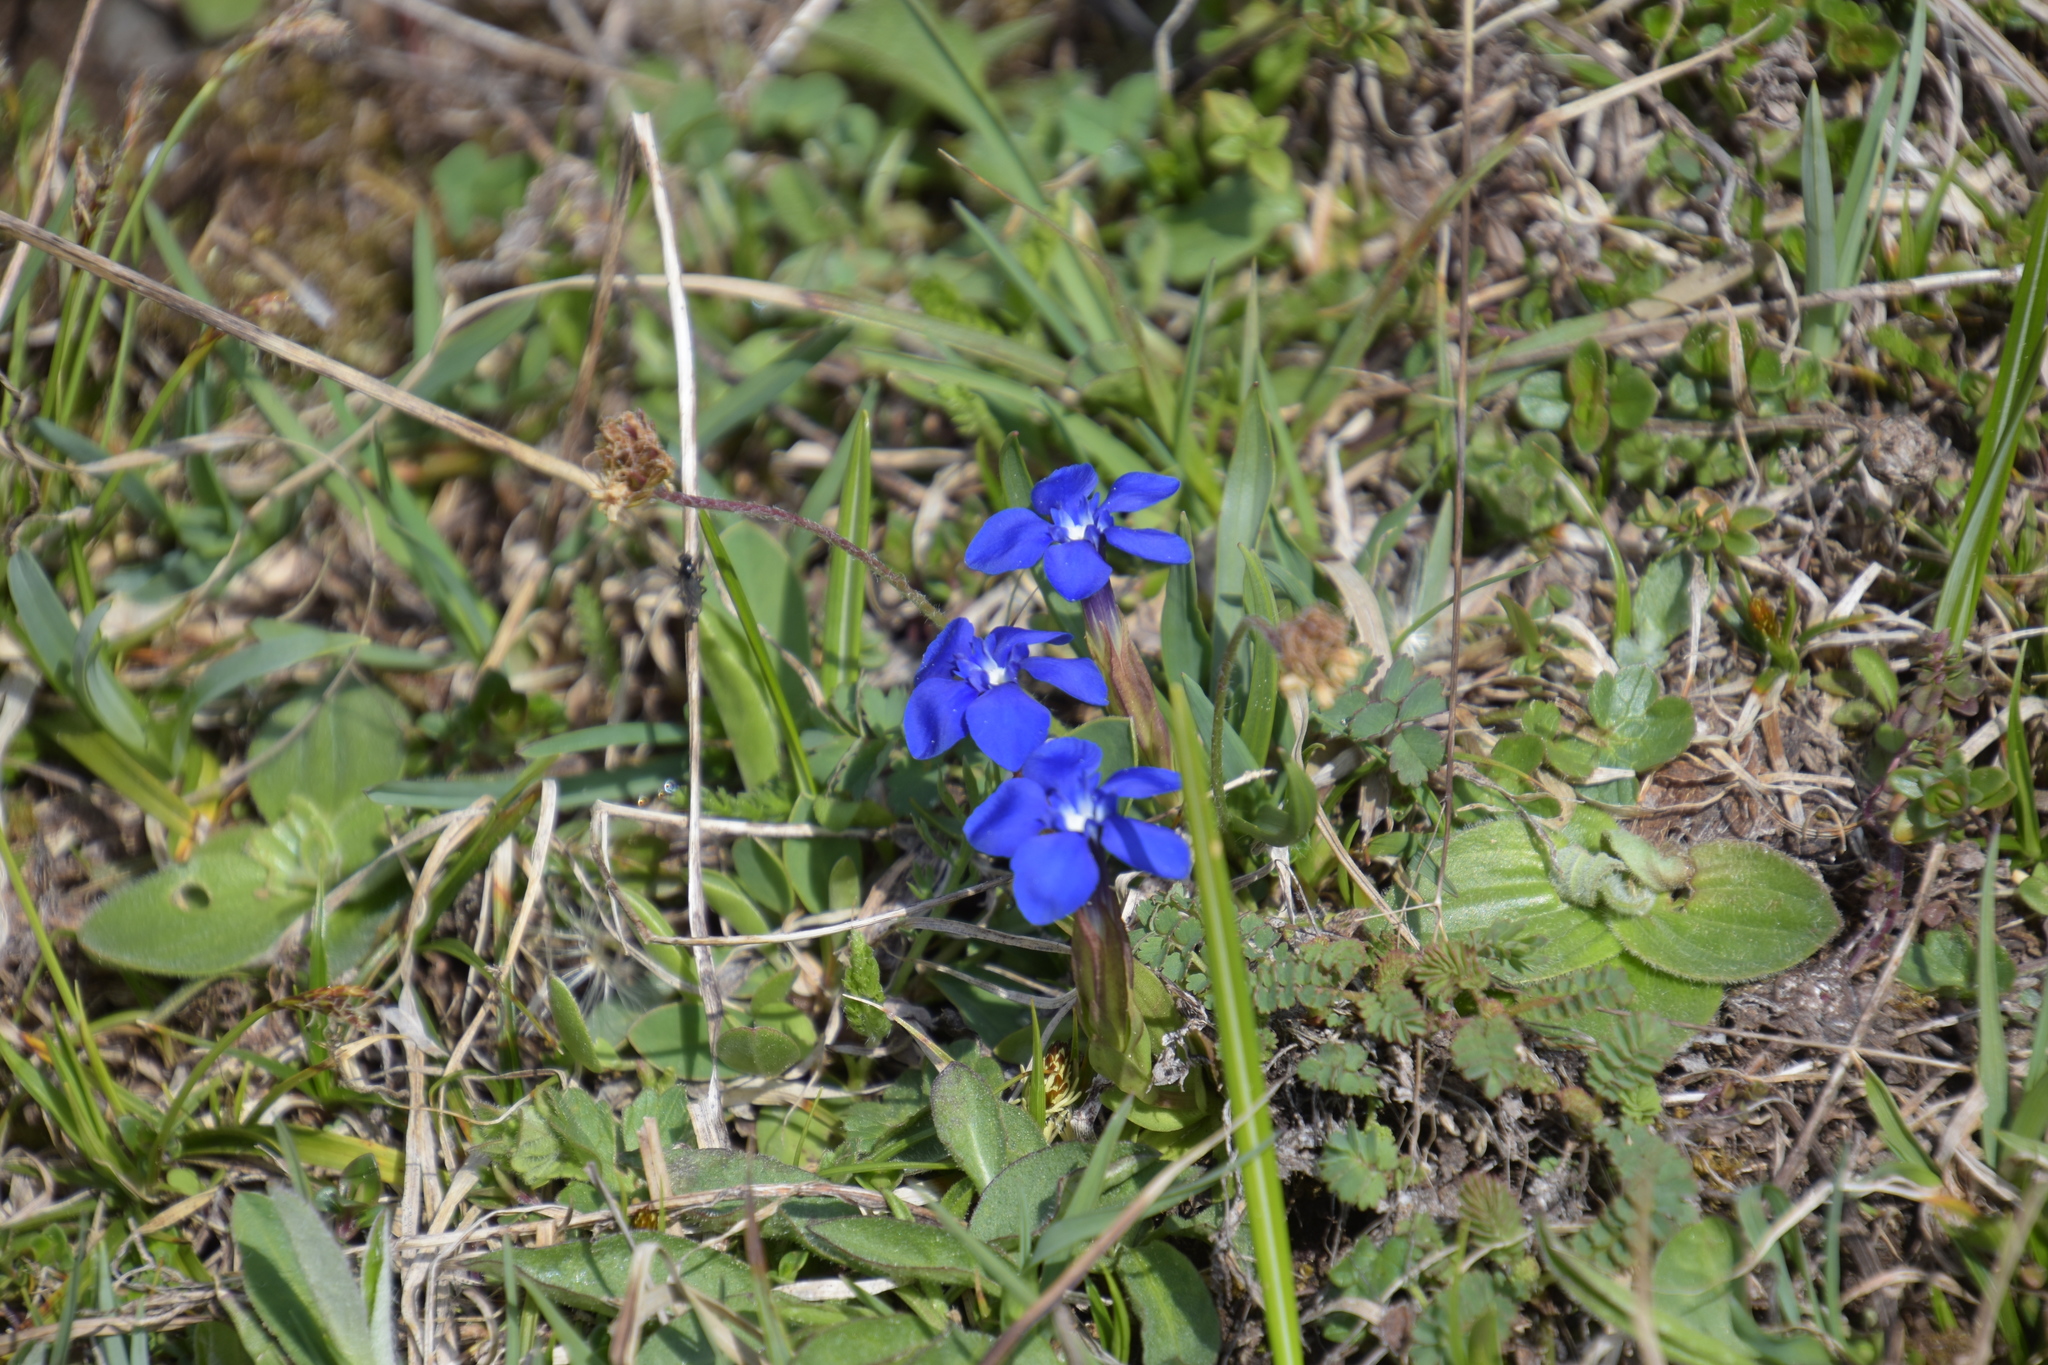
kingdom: Plantae
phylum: Tracheophyta
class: Magnoliopsida
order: Gentianales
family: Gentianaceae
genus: Gentiana
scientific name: Gentiana verna
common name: Spring gentian
